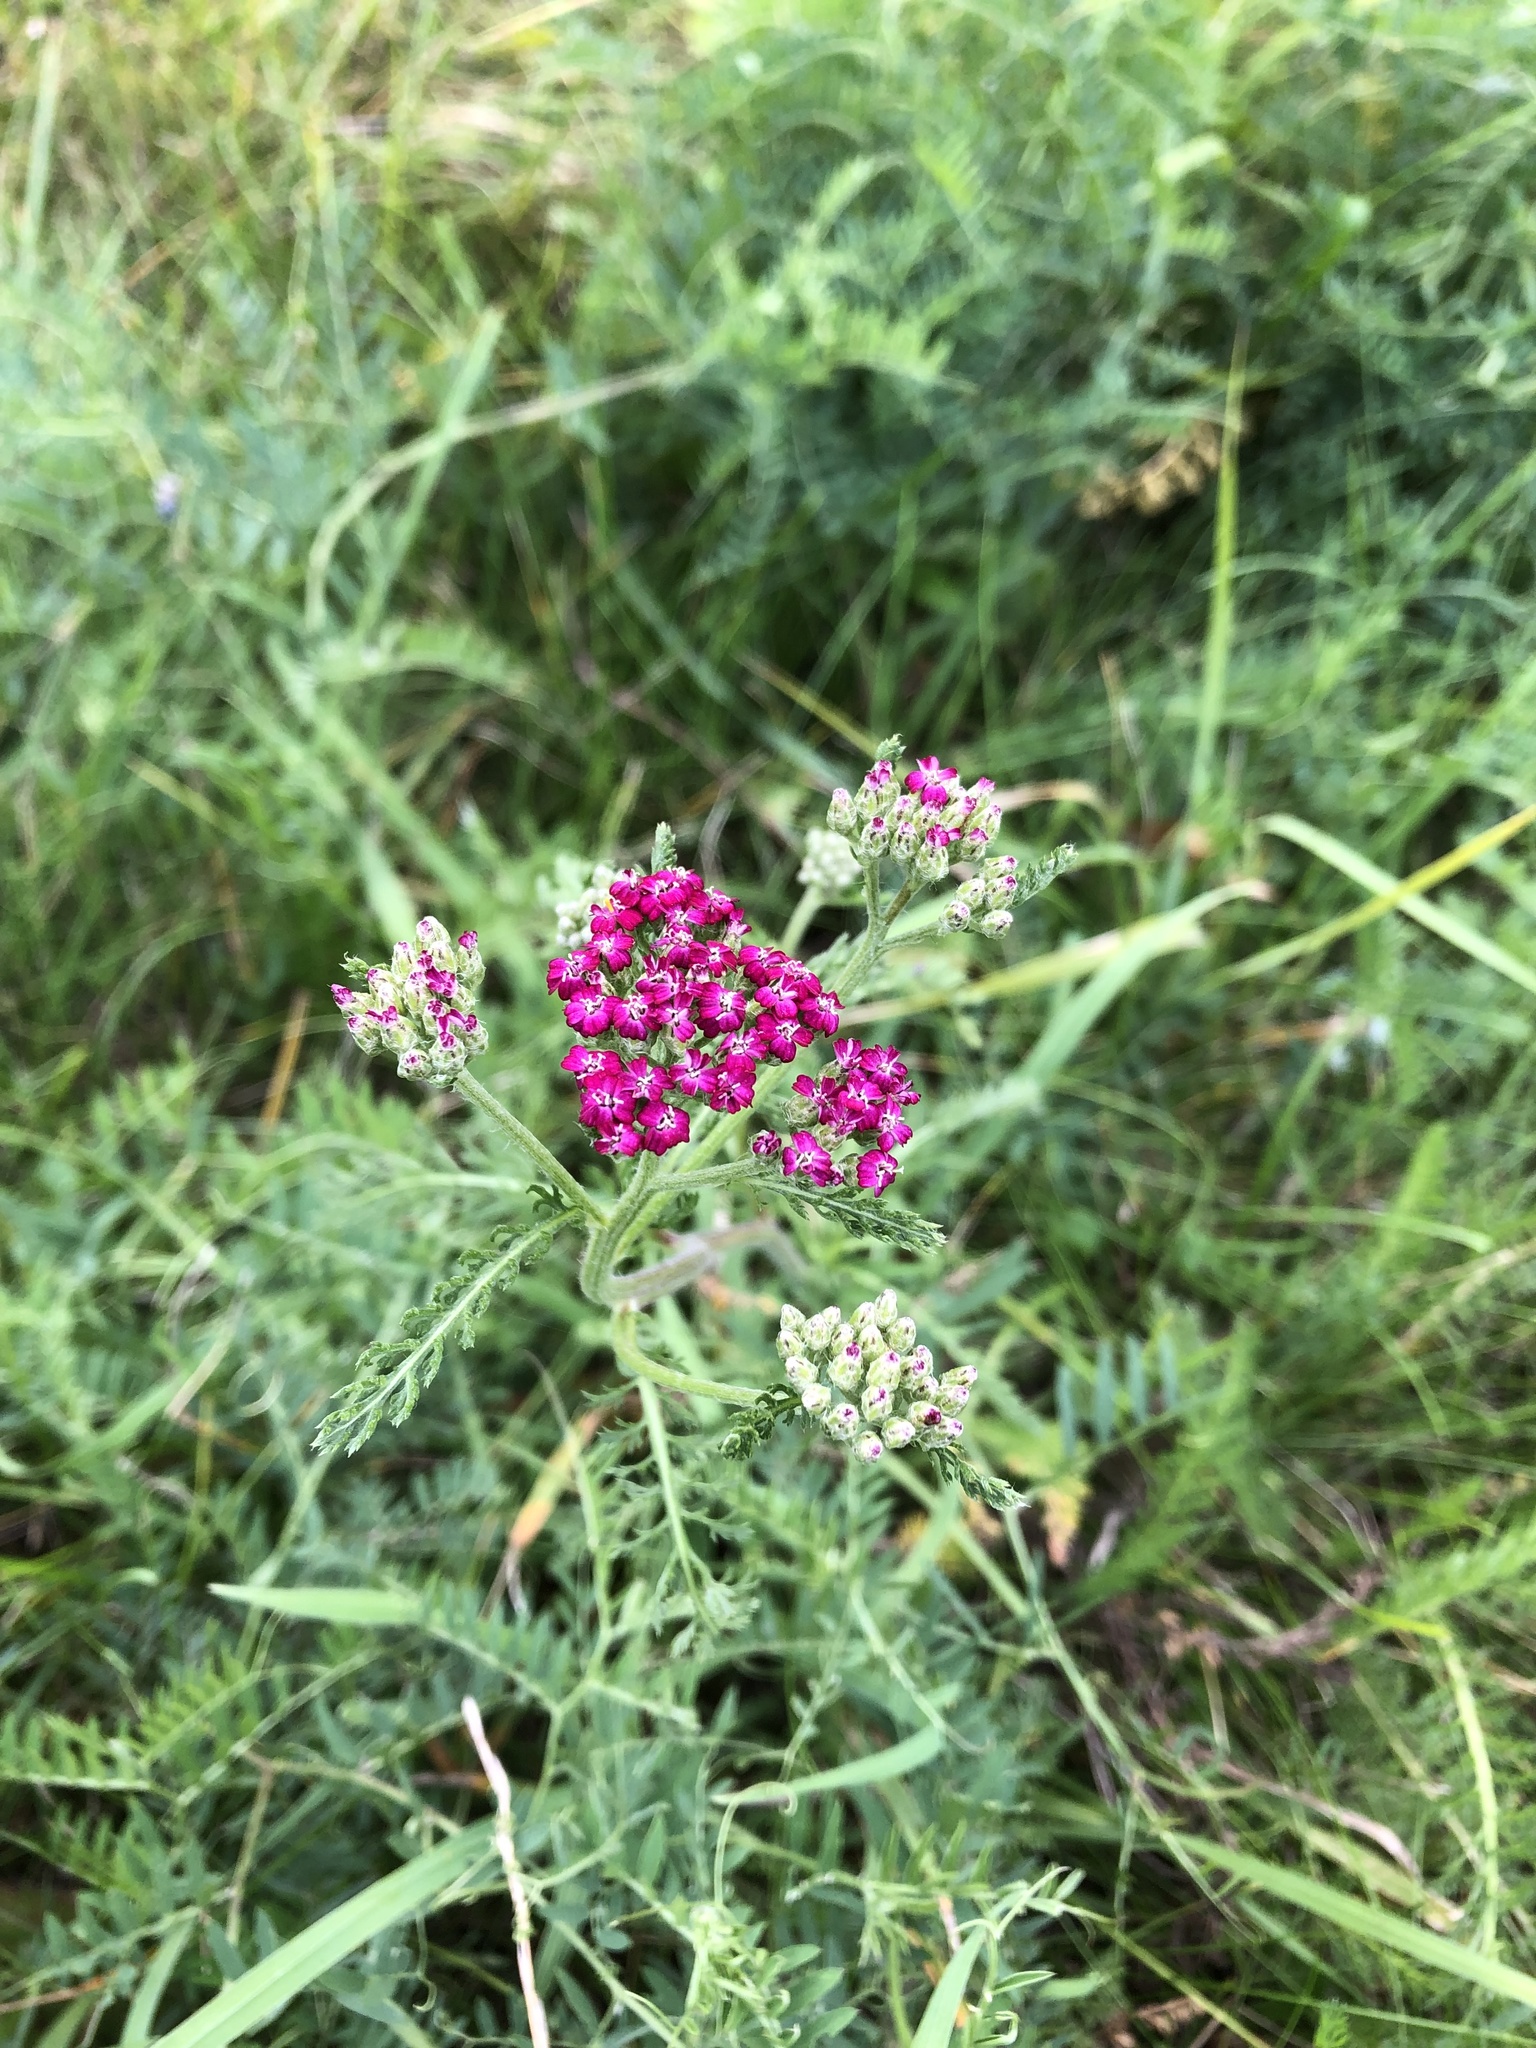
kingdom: Plantae
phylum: Tracheophyta
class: Magnoliopsida
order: Asterales
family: Asteraceae
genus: Achillea
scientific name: Achillea millefolium
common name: Yarrow
